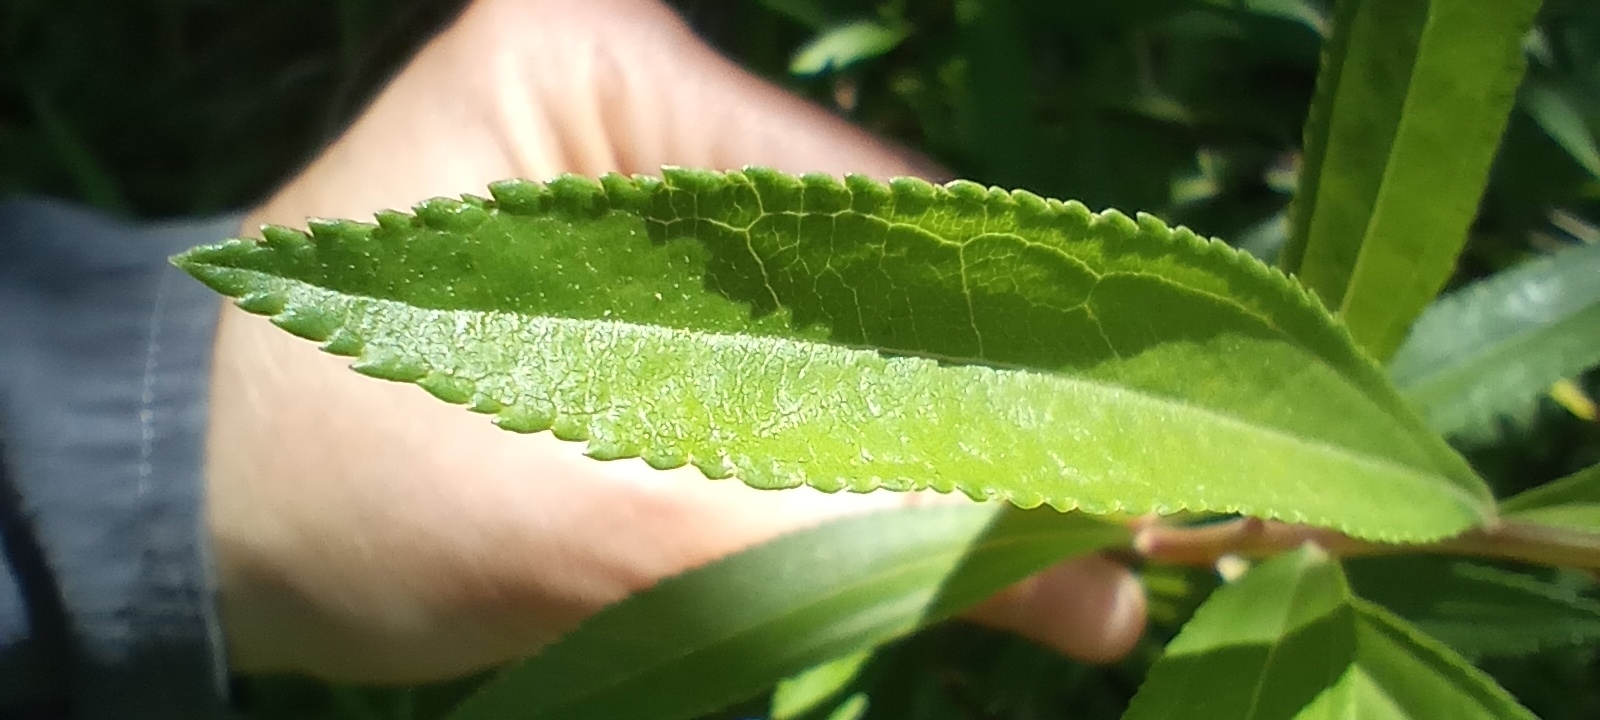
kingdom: Plantae
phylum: Tracheophyta
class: Magnoliopsida
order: Asterales
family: Asteraceae
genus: Baccharis
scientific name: Baccharis punctulata
